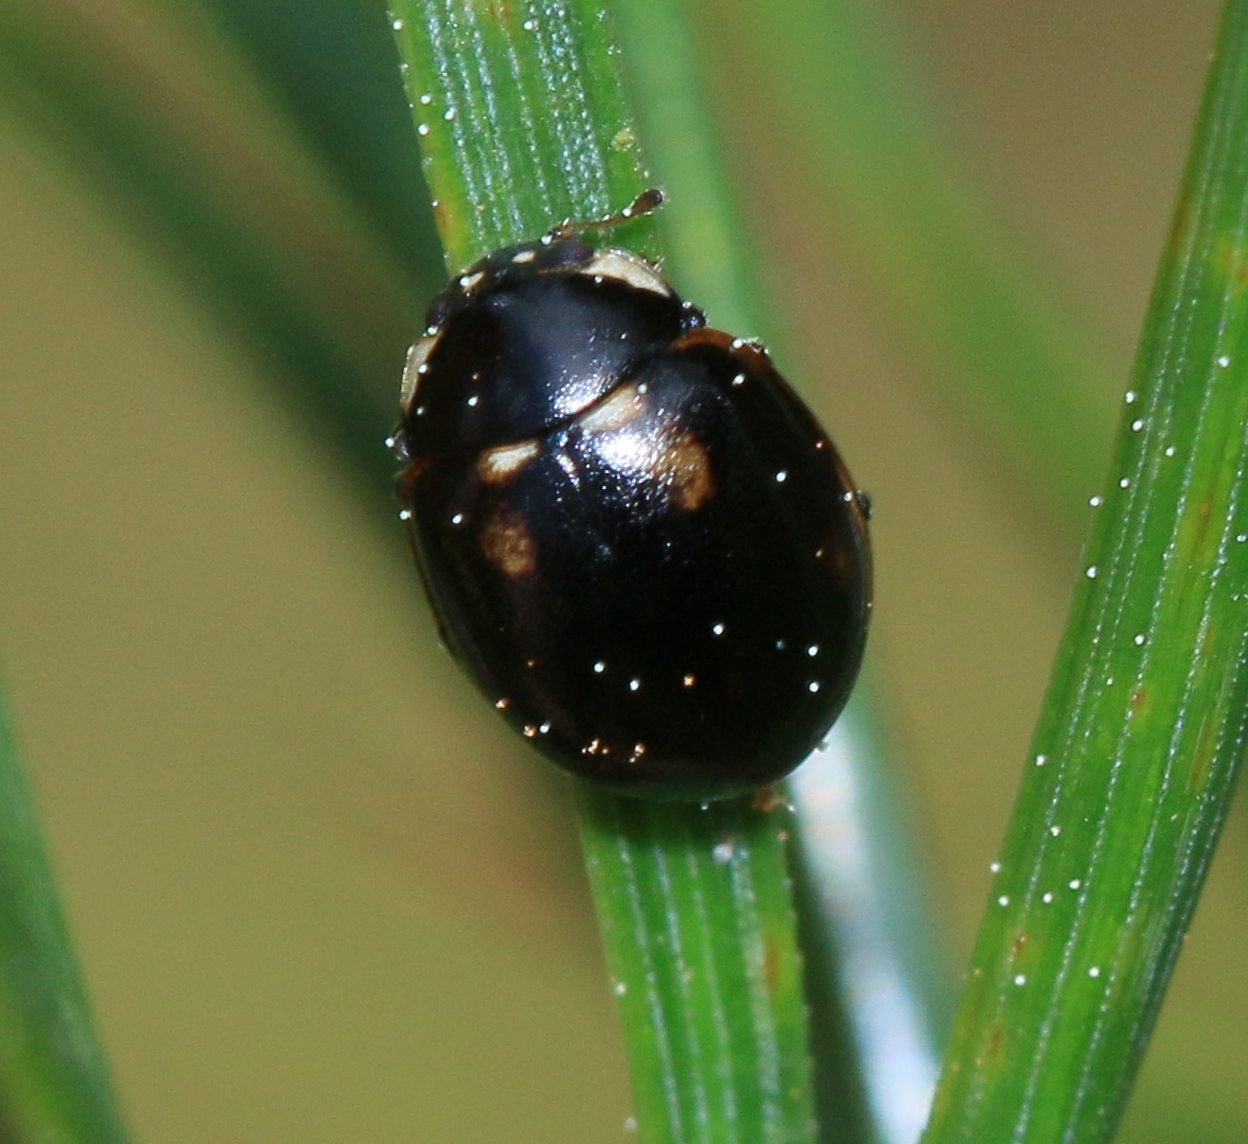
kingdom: Animalia
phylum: Arthropoda
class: Insecta
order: Coleoptera
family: Coccinellidae
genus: Coccinella
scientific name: Coccinella hieroglyphica
